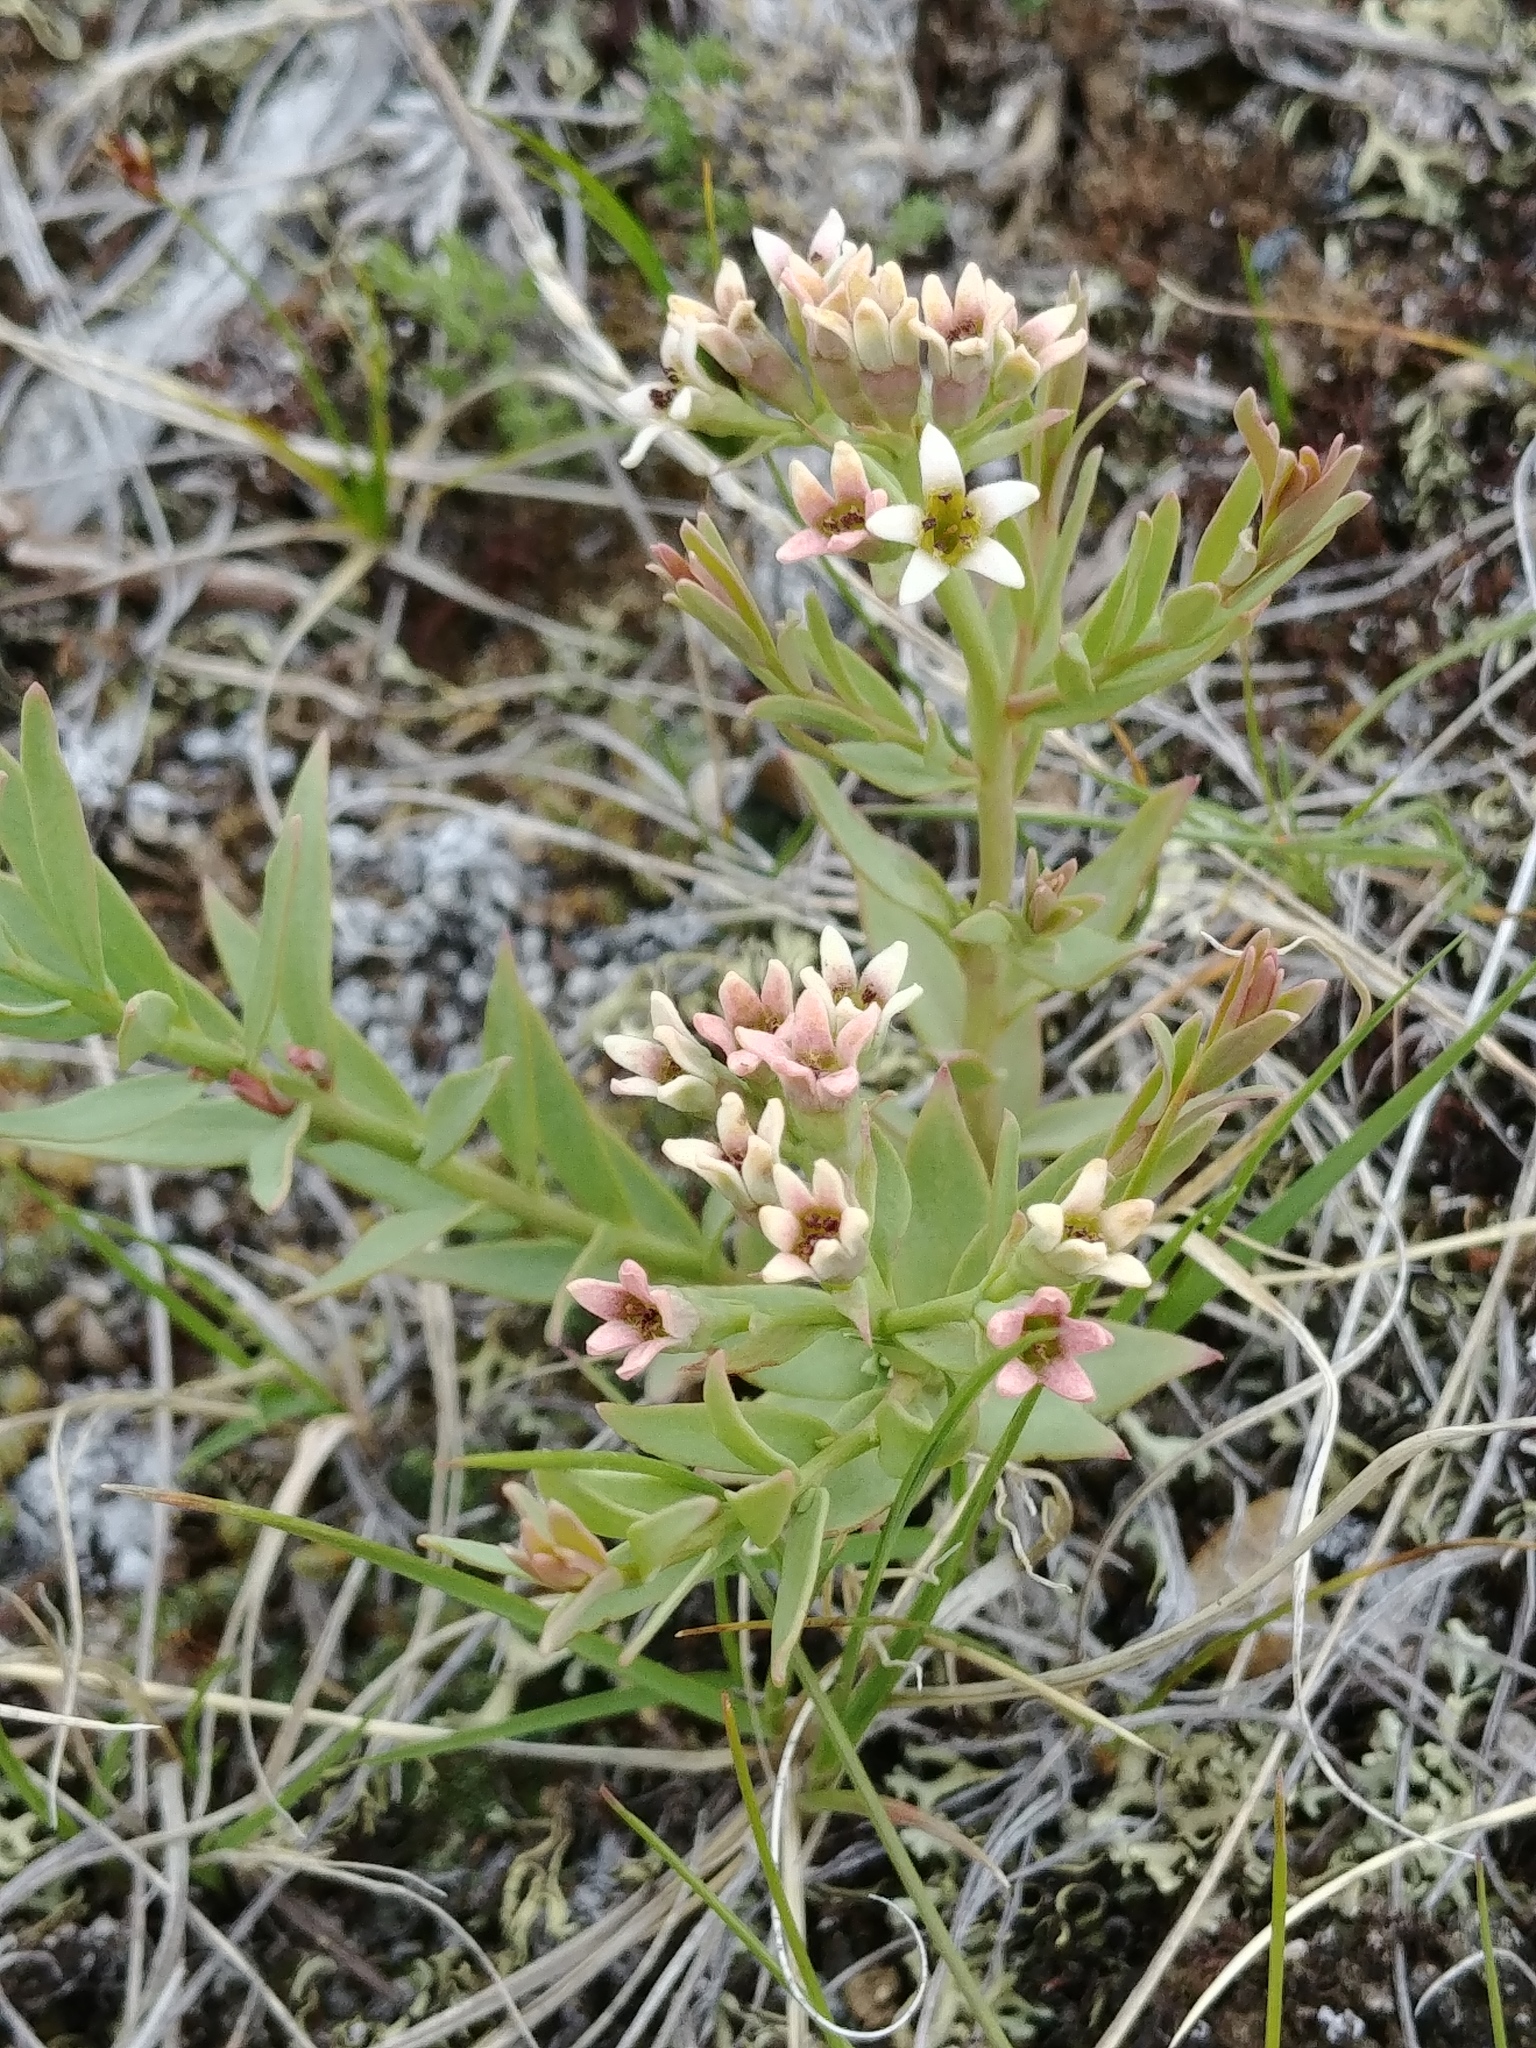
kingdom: Plantae
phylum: Tracheophyta
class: Magnoliopsida
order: Santalales
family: Comandraceae
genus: Comandra
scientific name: Comandra umbellata
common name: Bastard toadflax
